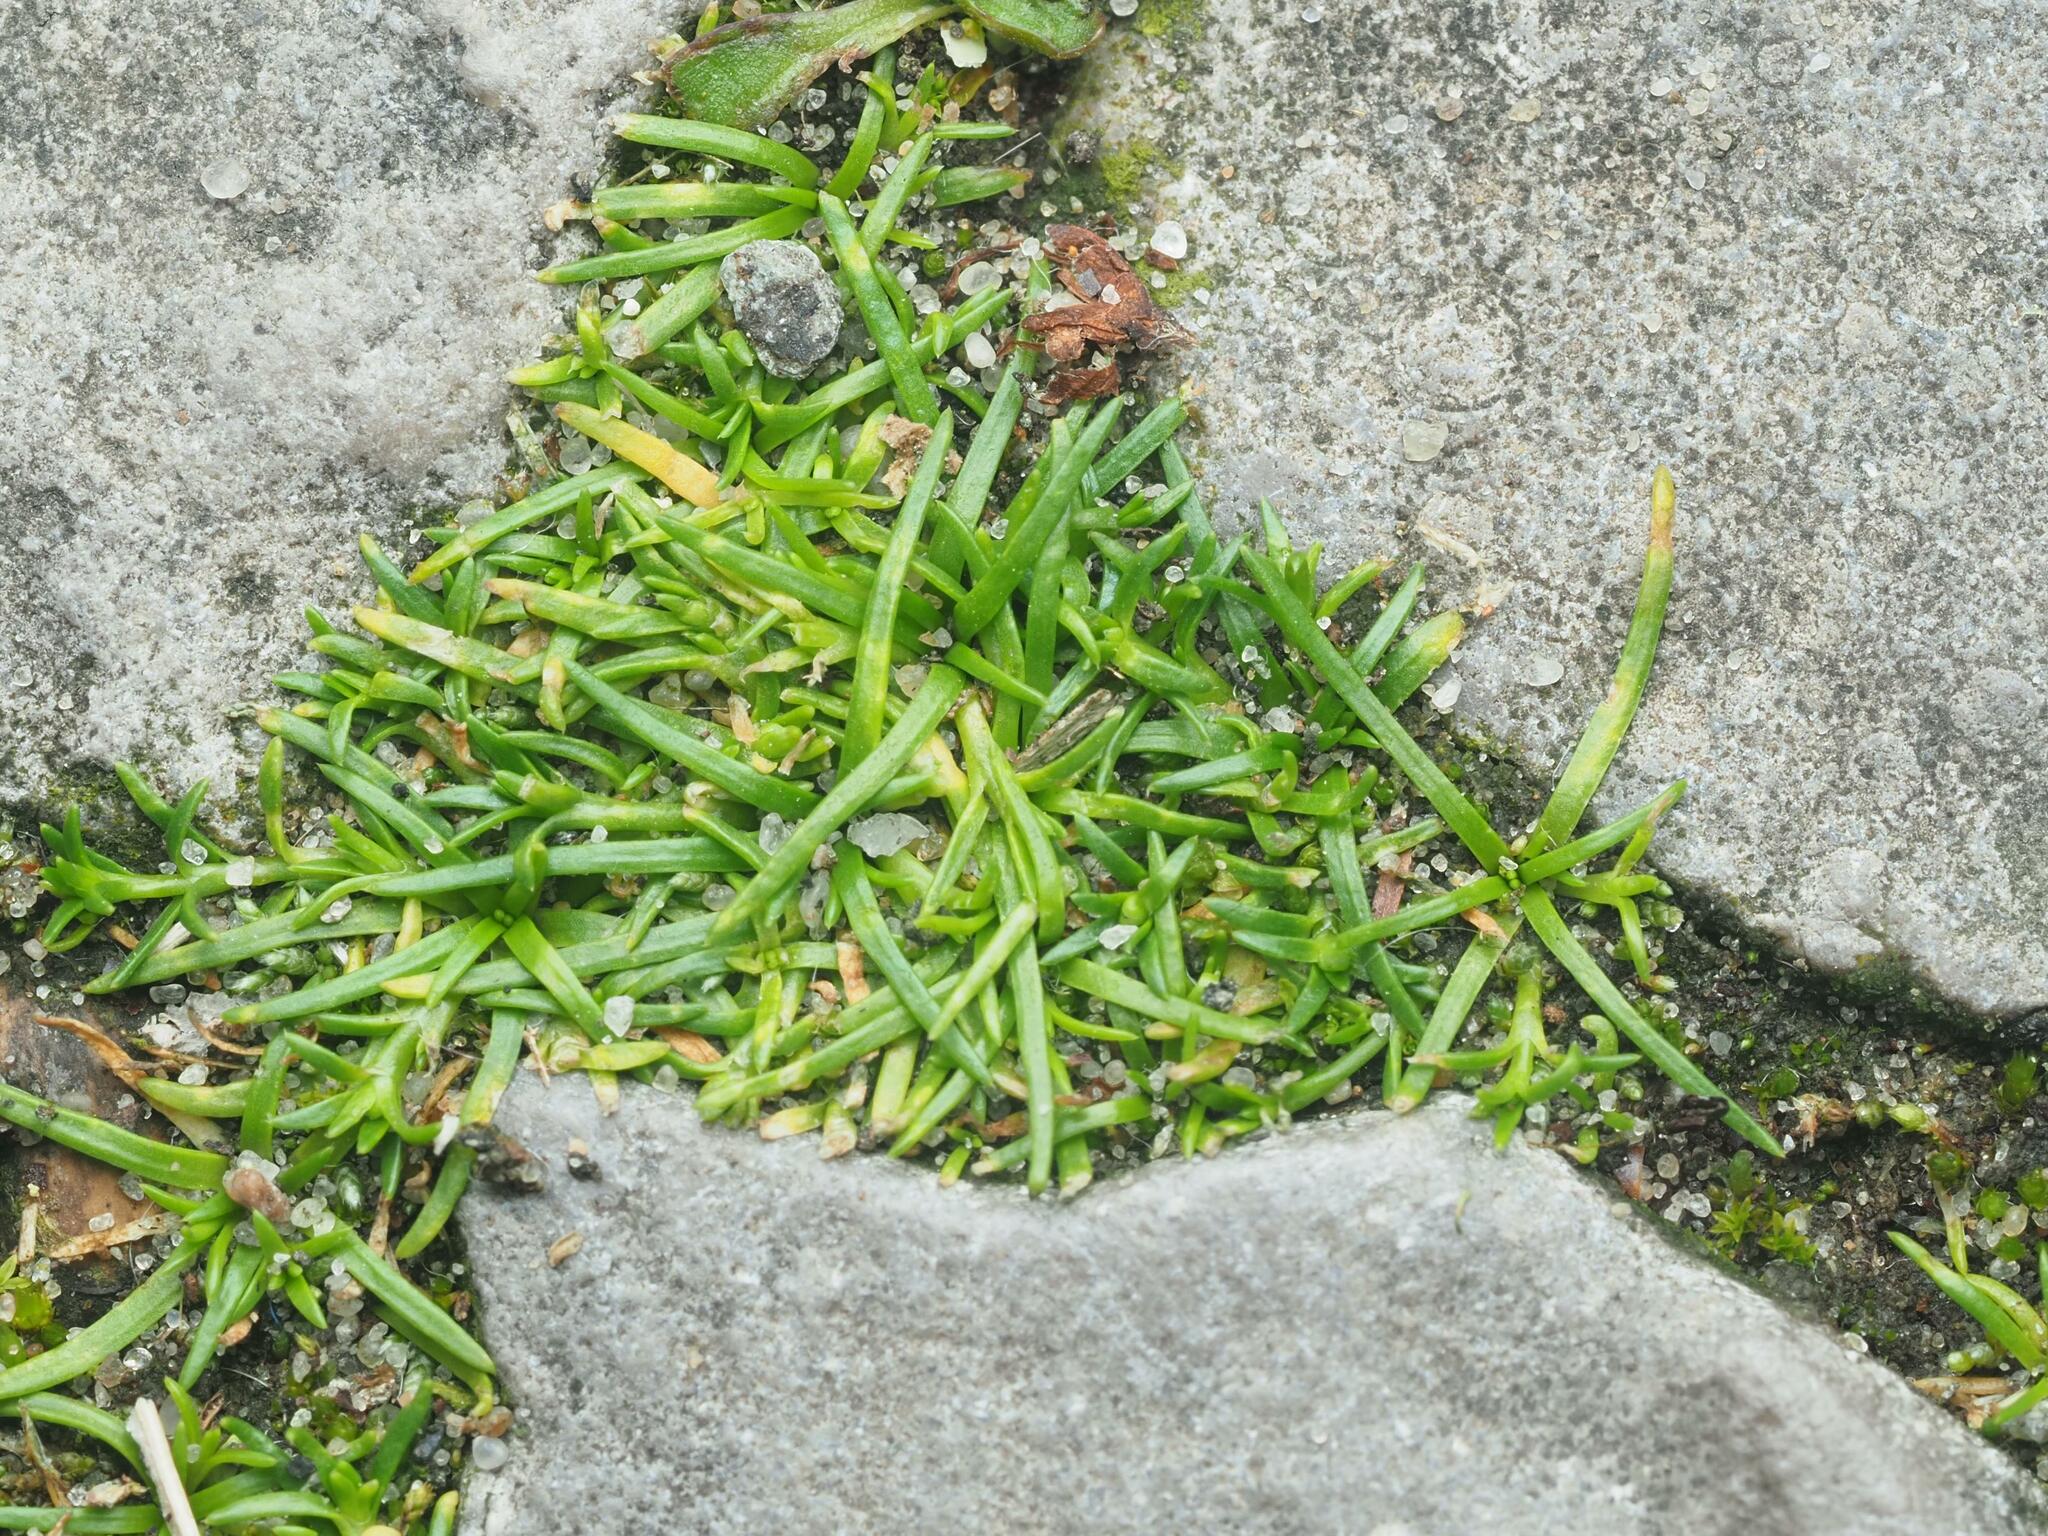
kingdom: Plantae
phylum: Tracheophyta
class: Magnoliopsida
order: Caryophyllales
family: Caryophyllaceae
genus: Sagina
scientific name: Sagina procumbens
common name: Procumbent pearlwort
